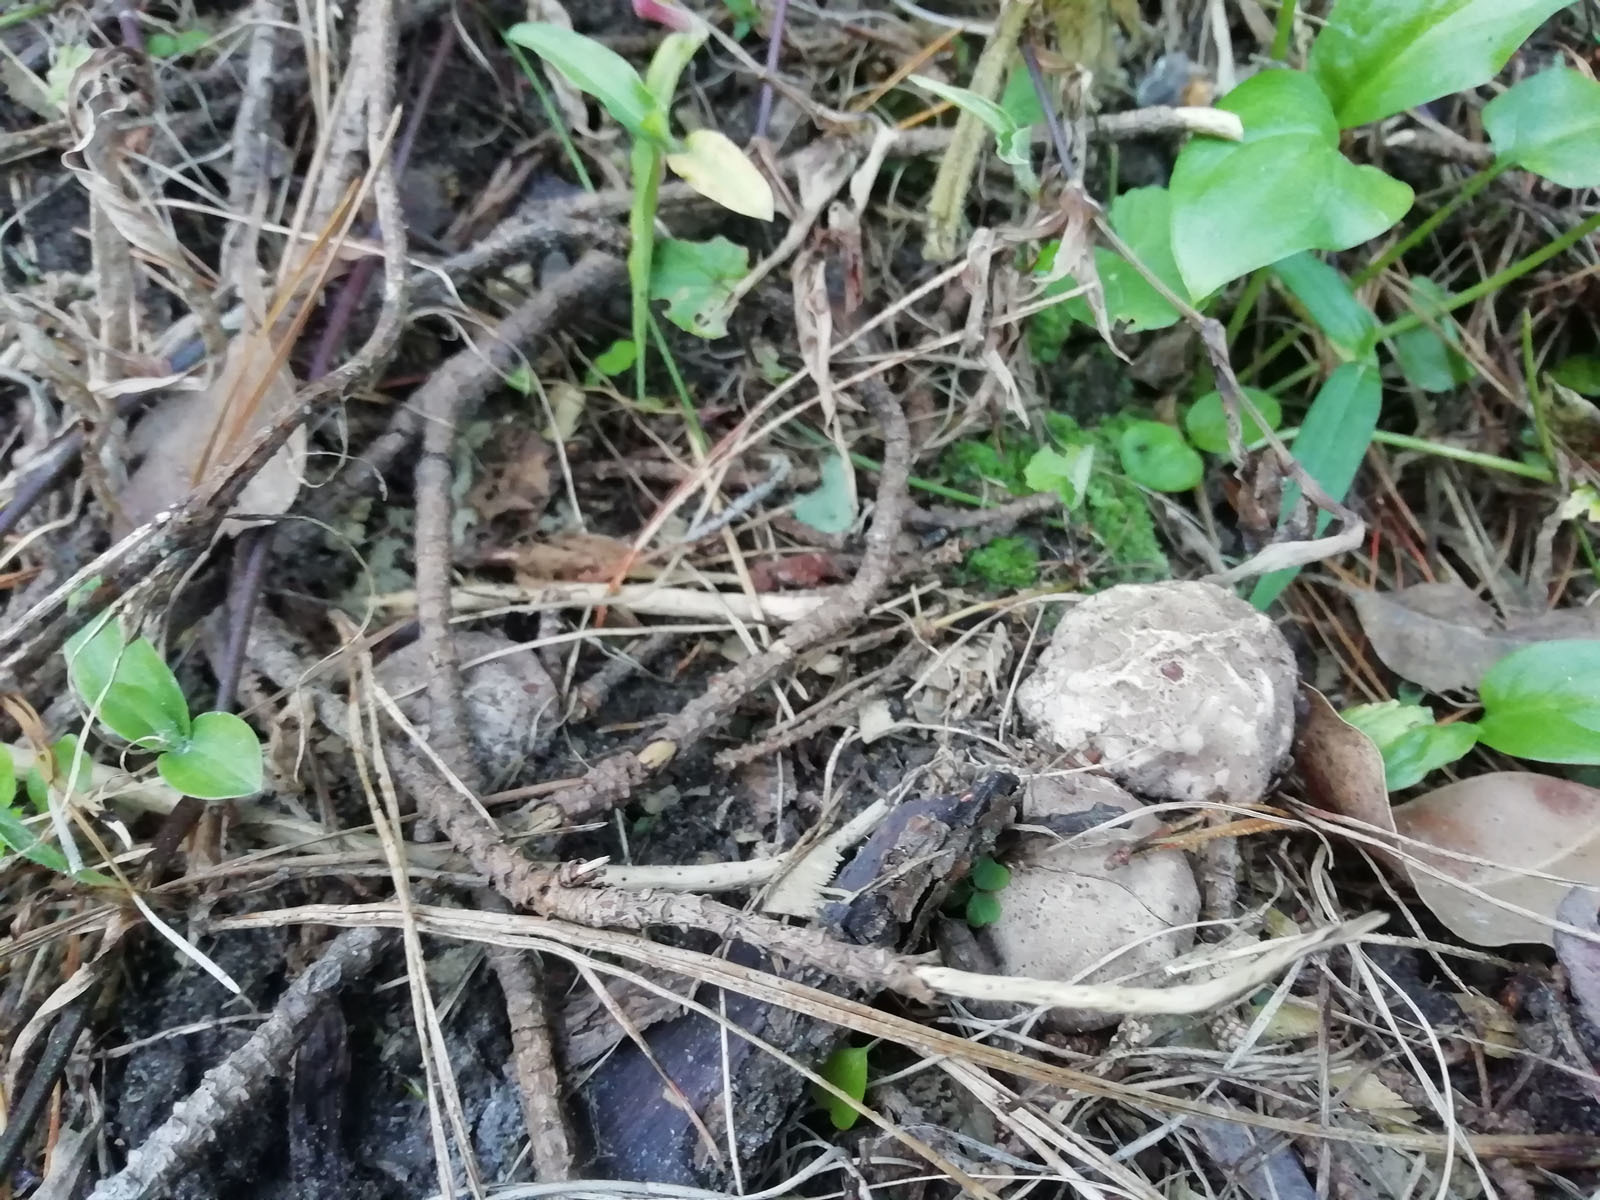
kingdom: Fungi
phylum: Basidiomycota
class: Agaricomycetes
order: Phallales
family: Phallaceae
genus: Clathrus
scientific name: Clathrus archeri
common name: Devil's fingers
